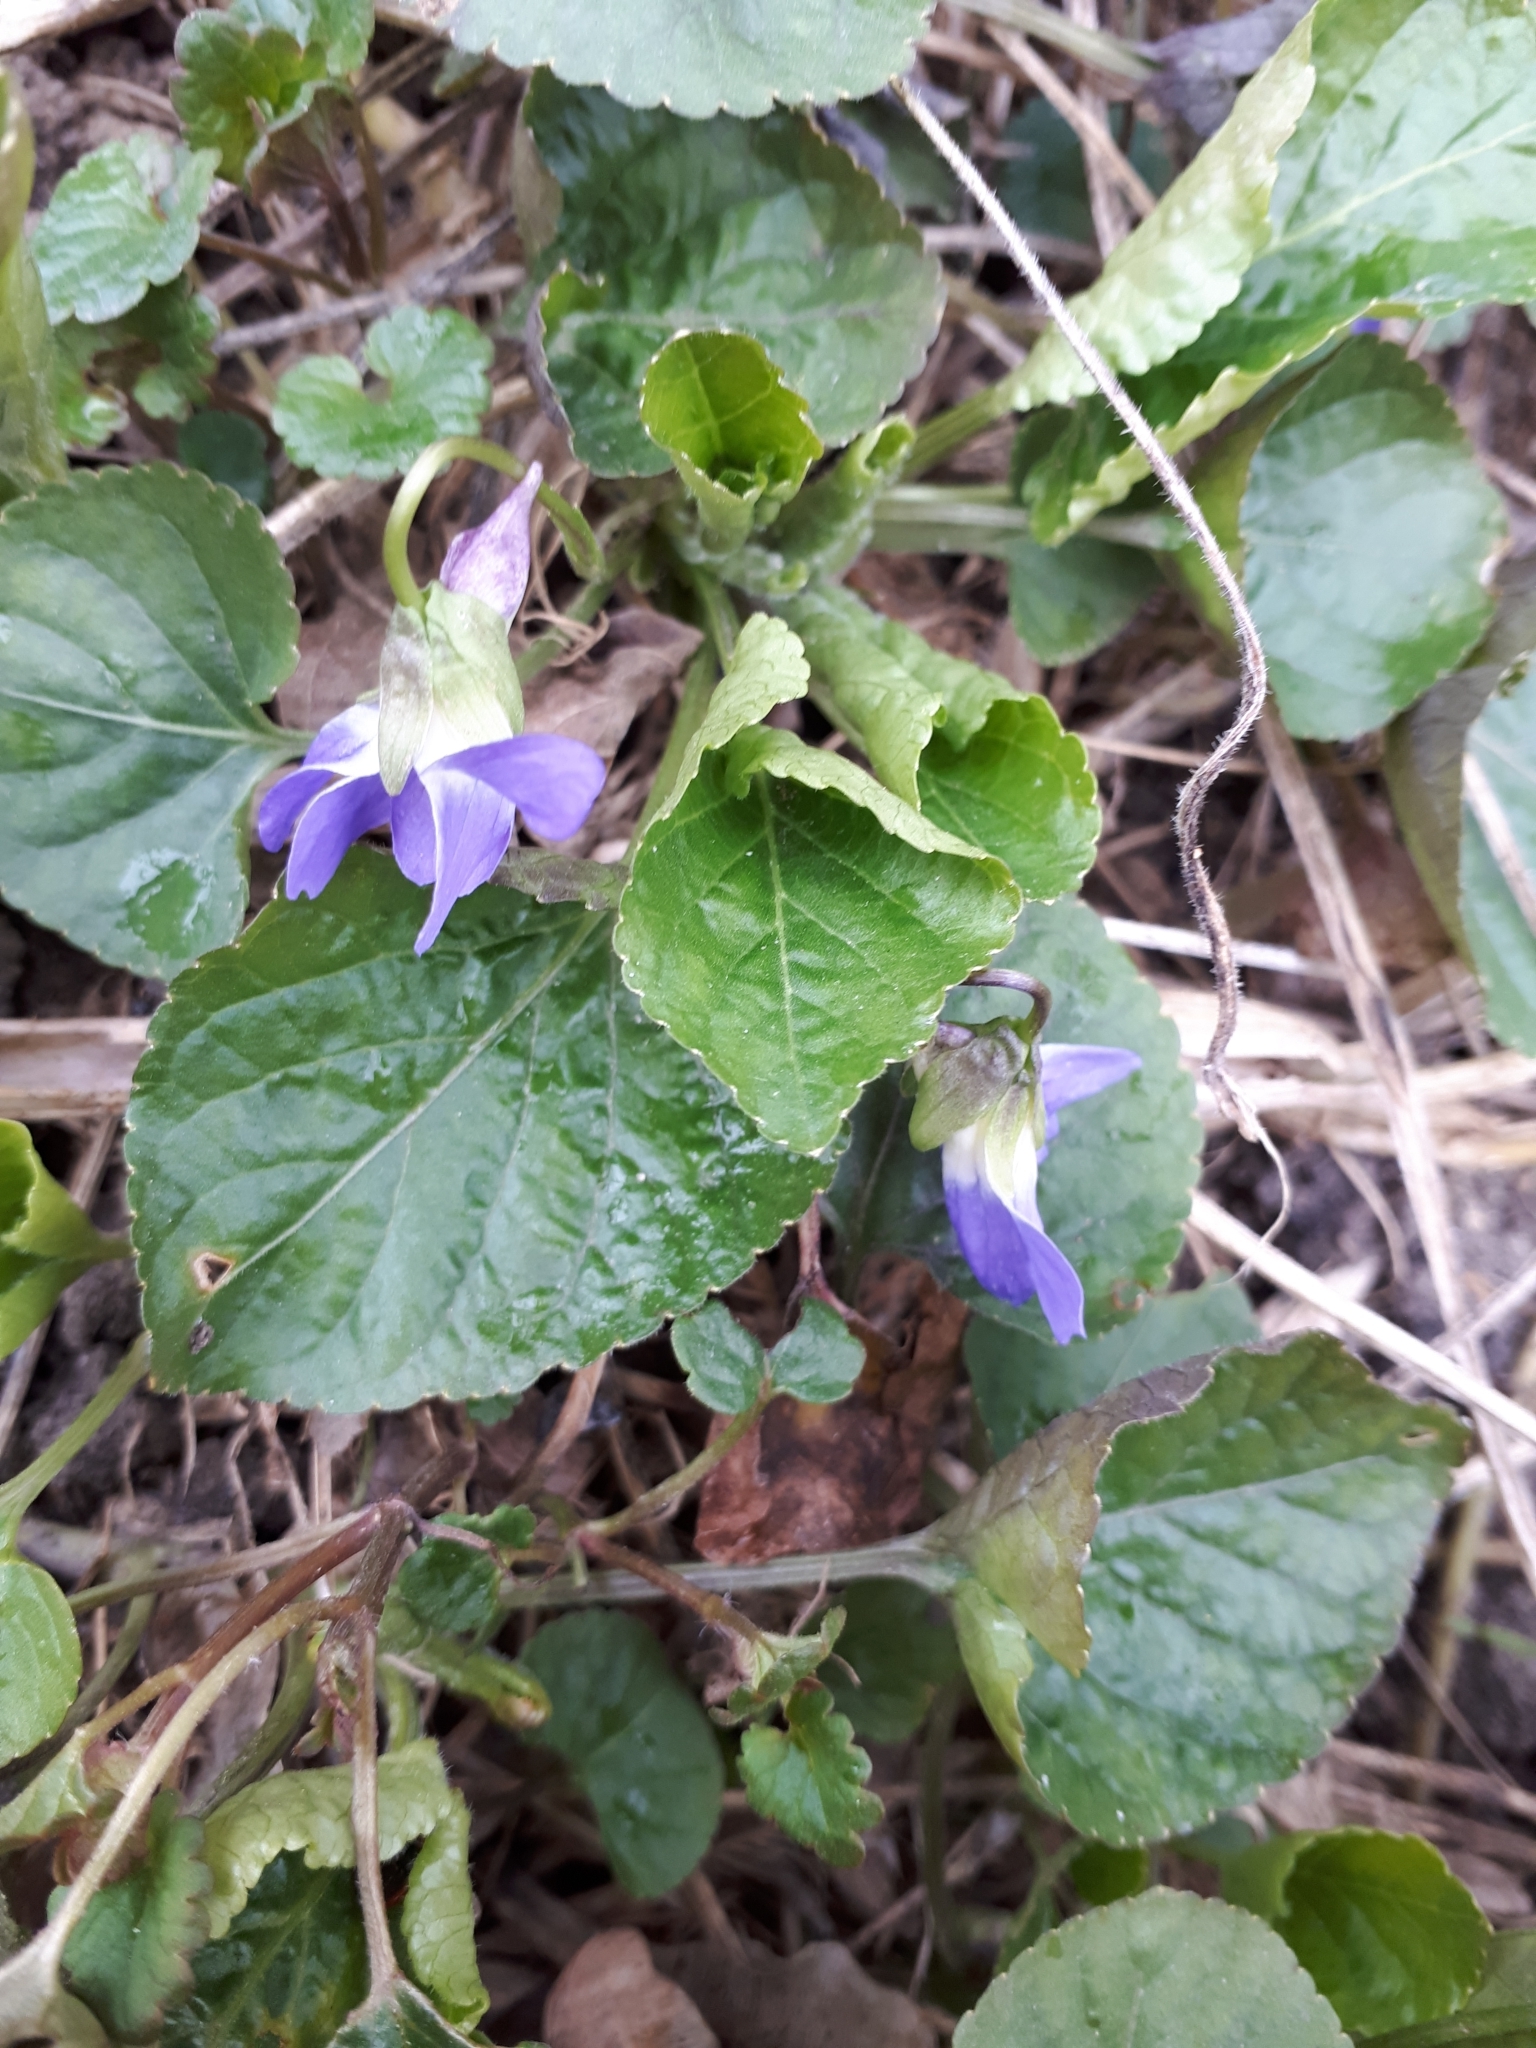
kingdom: Plantae
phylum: Tracheophyta
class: Magnoliopsida
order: Malpighiales
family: Violaceae
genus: Viola
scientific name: Viola odorata
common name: Sweet violet
